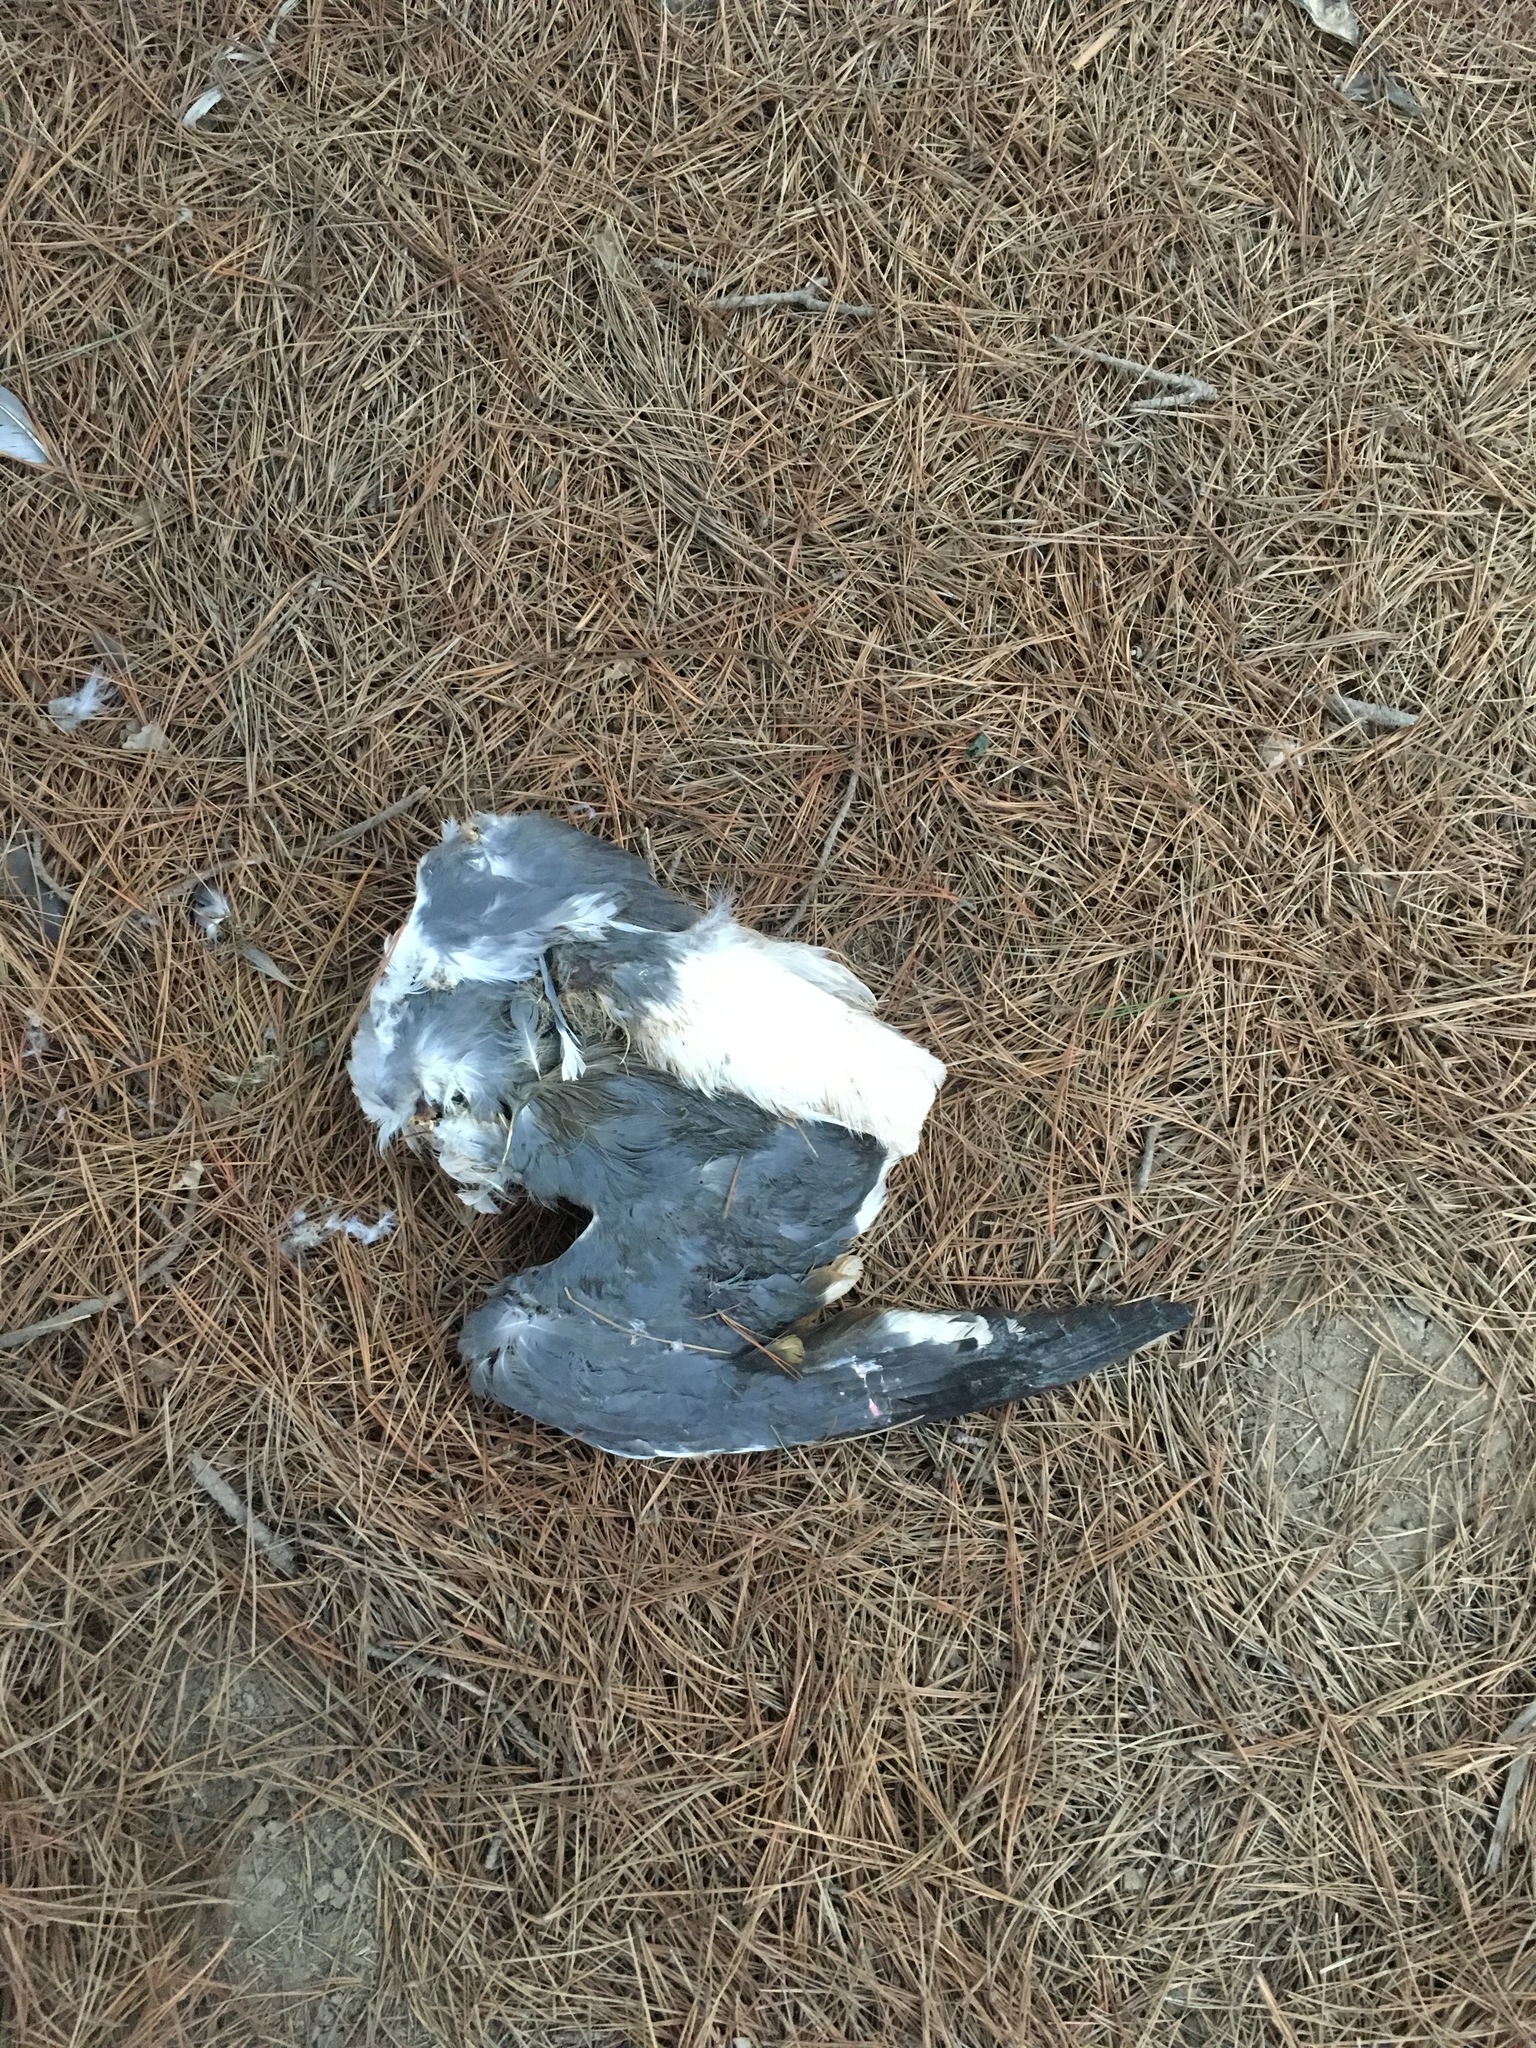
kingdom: Animalia
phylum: Chordata
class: Aves
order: Charadriiformes
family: Laridae
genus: Larus
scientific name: Larus occidentalis
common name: Western gull
